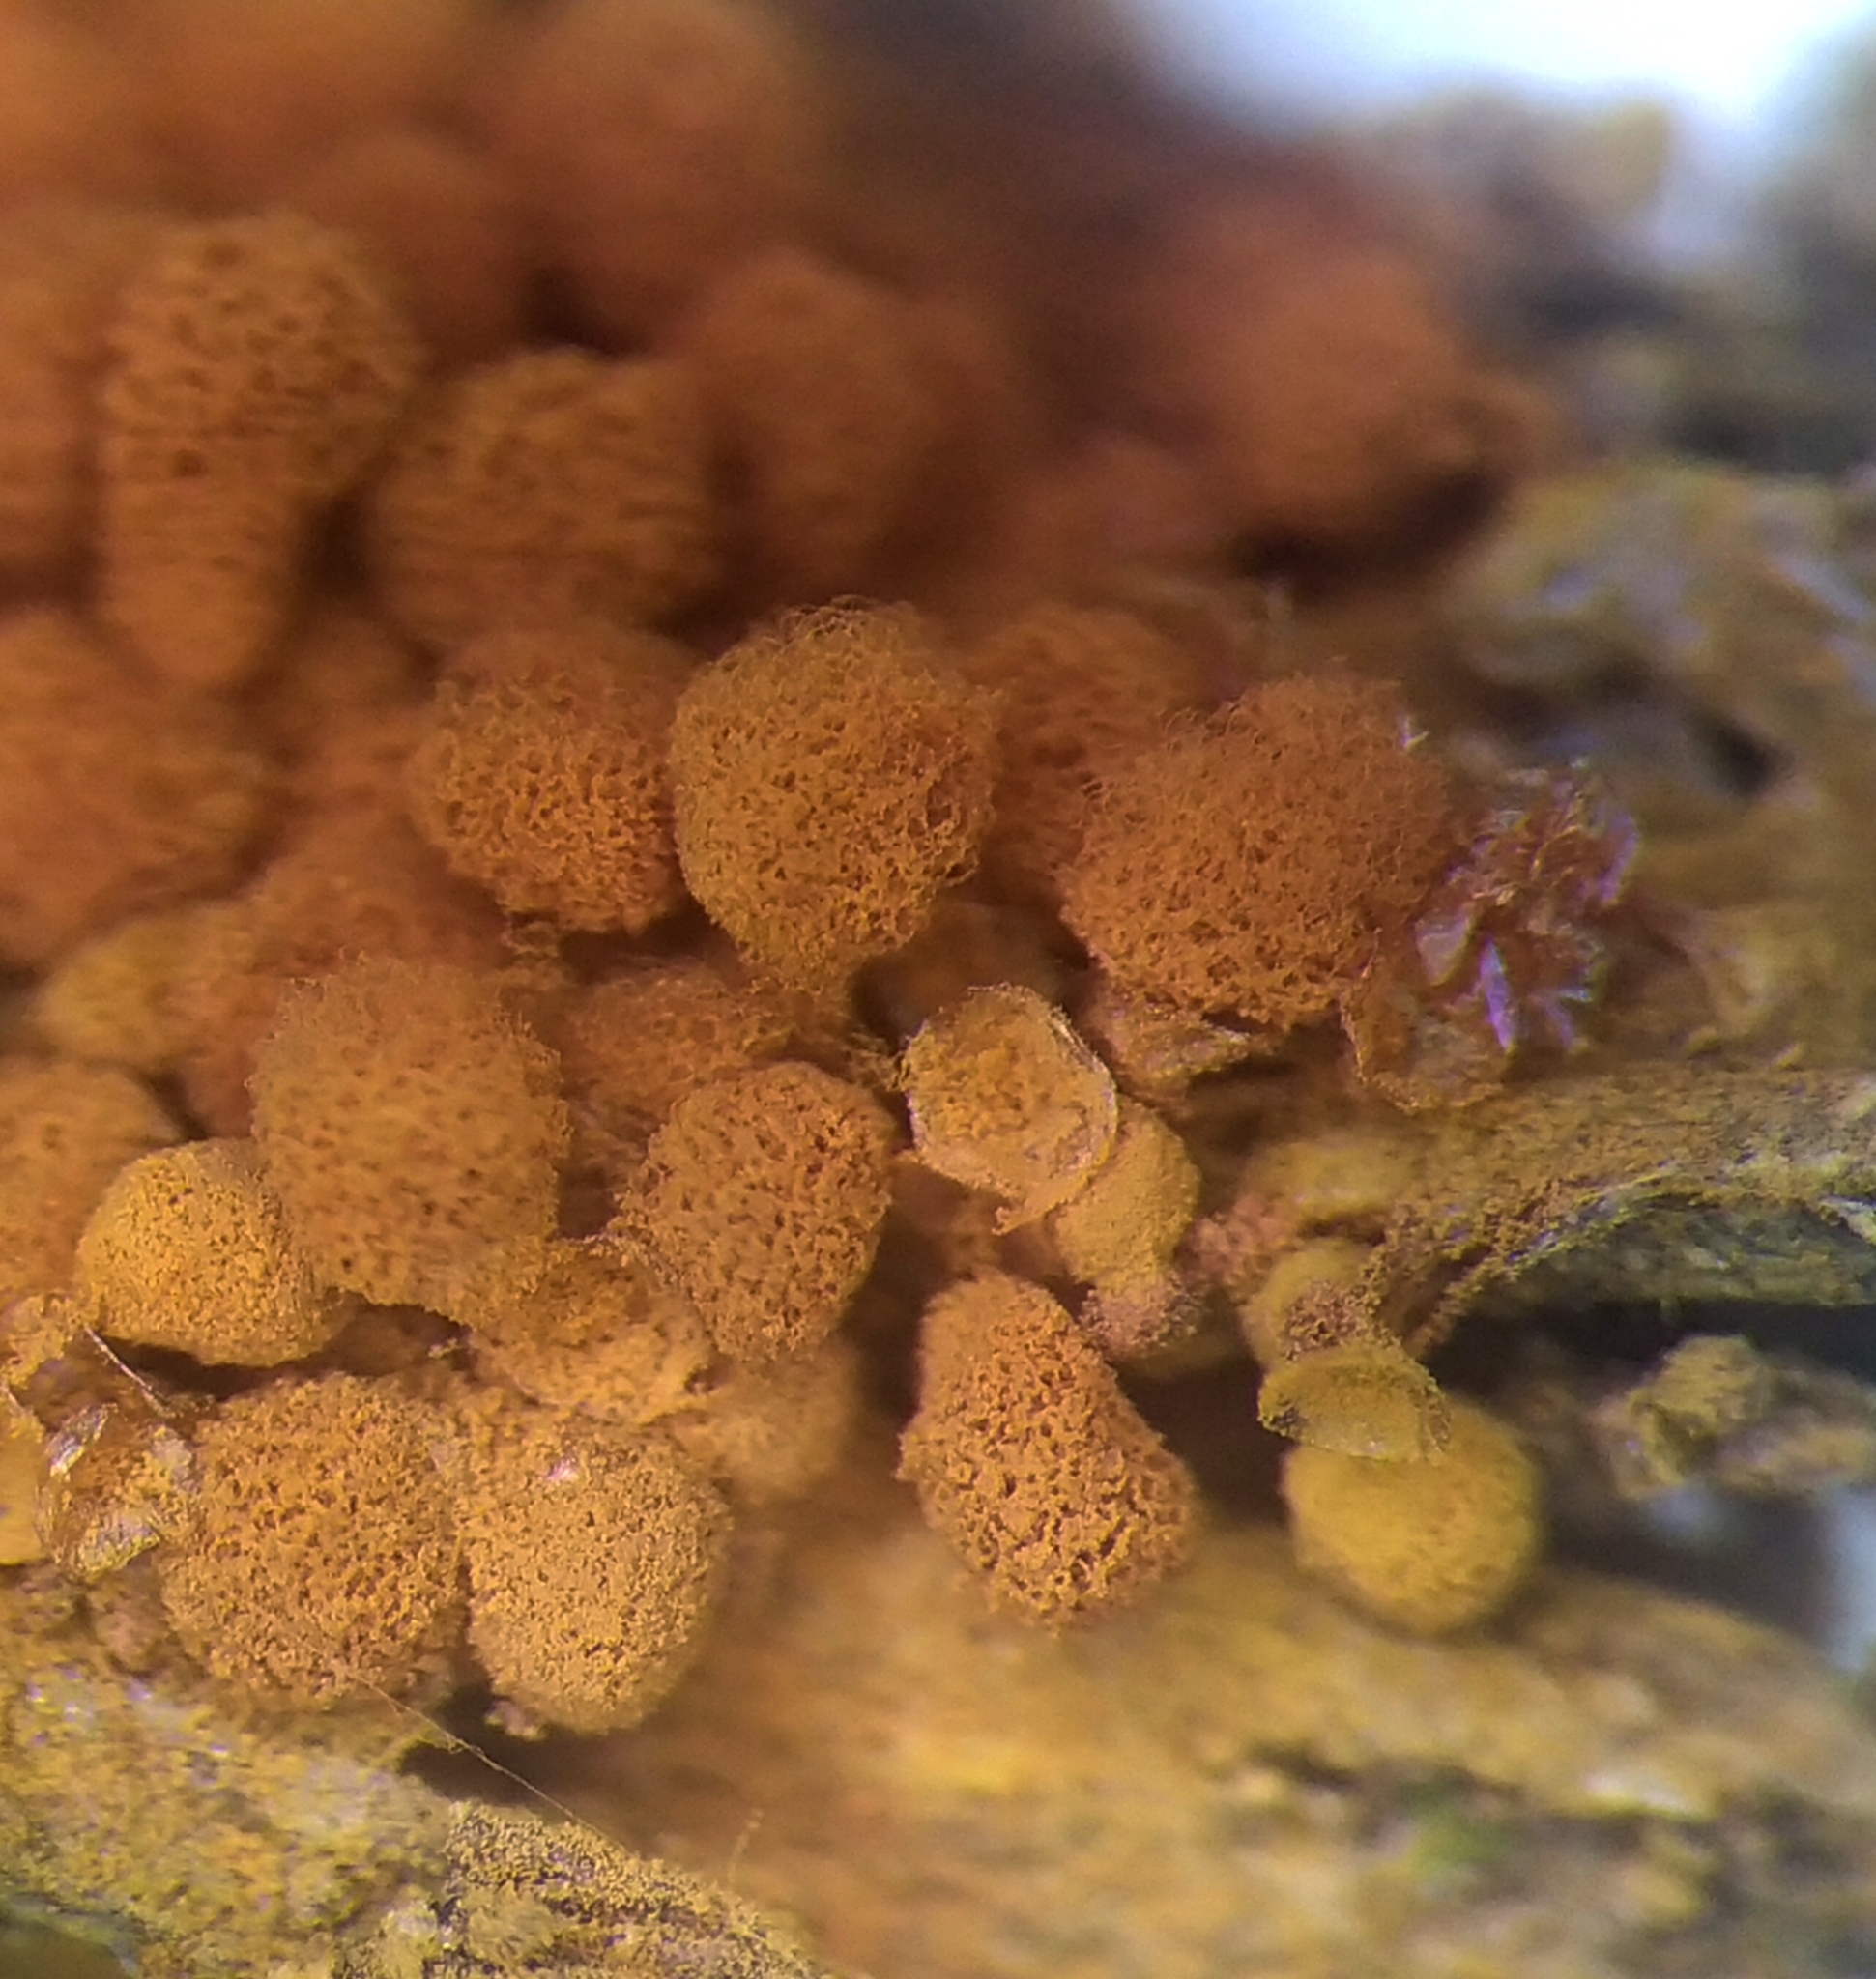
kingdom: Protozoa
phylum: Mycetozoa
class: Myxomycetes
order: Trichiales
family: Arcyriaceae
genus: Arcyria
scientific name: Arcyria ferruginea
